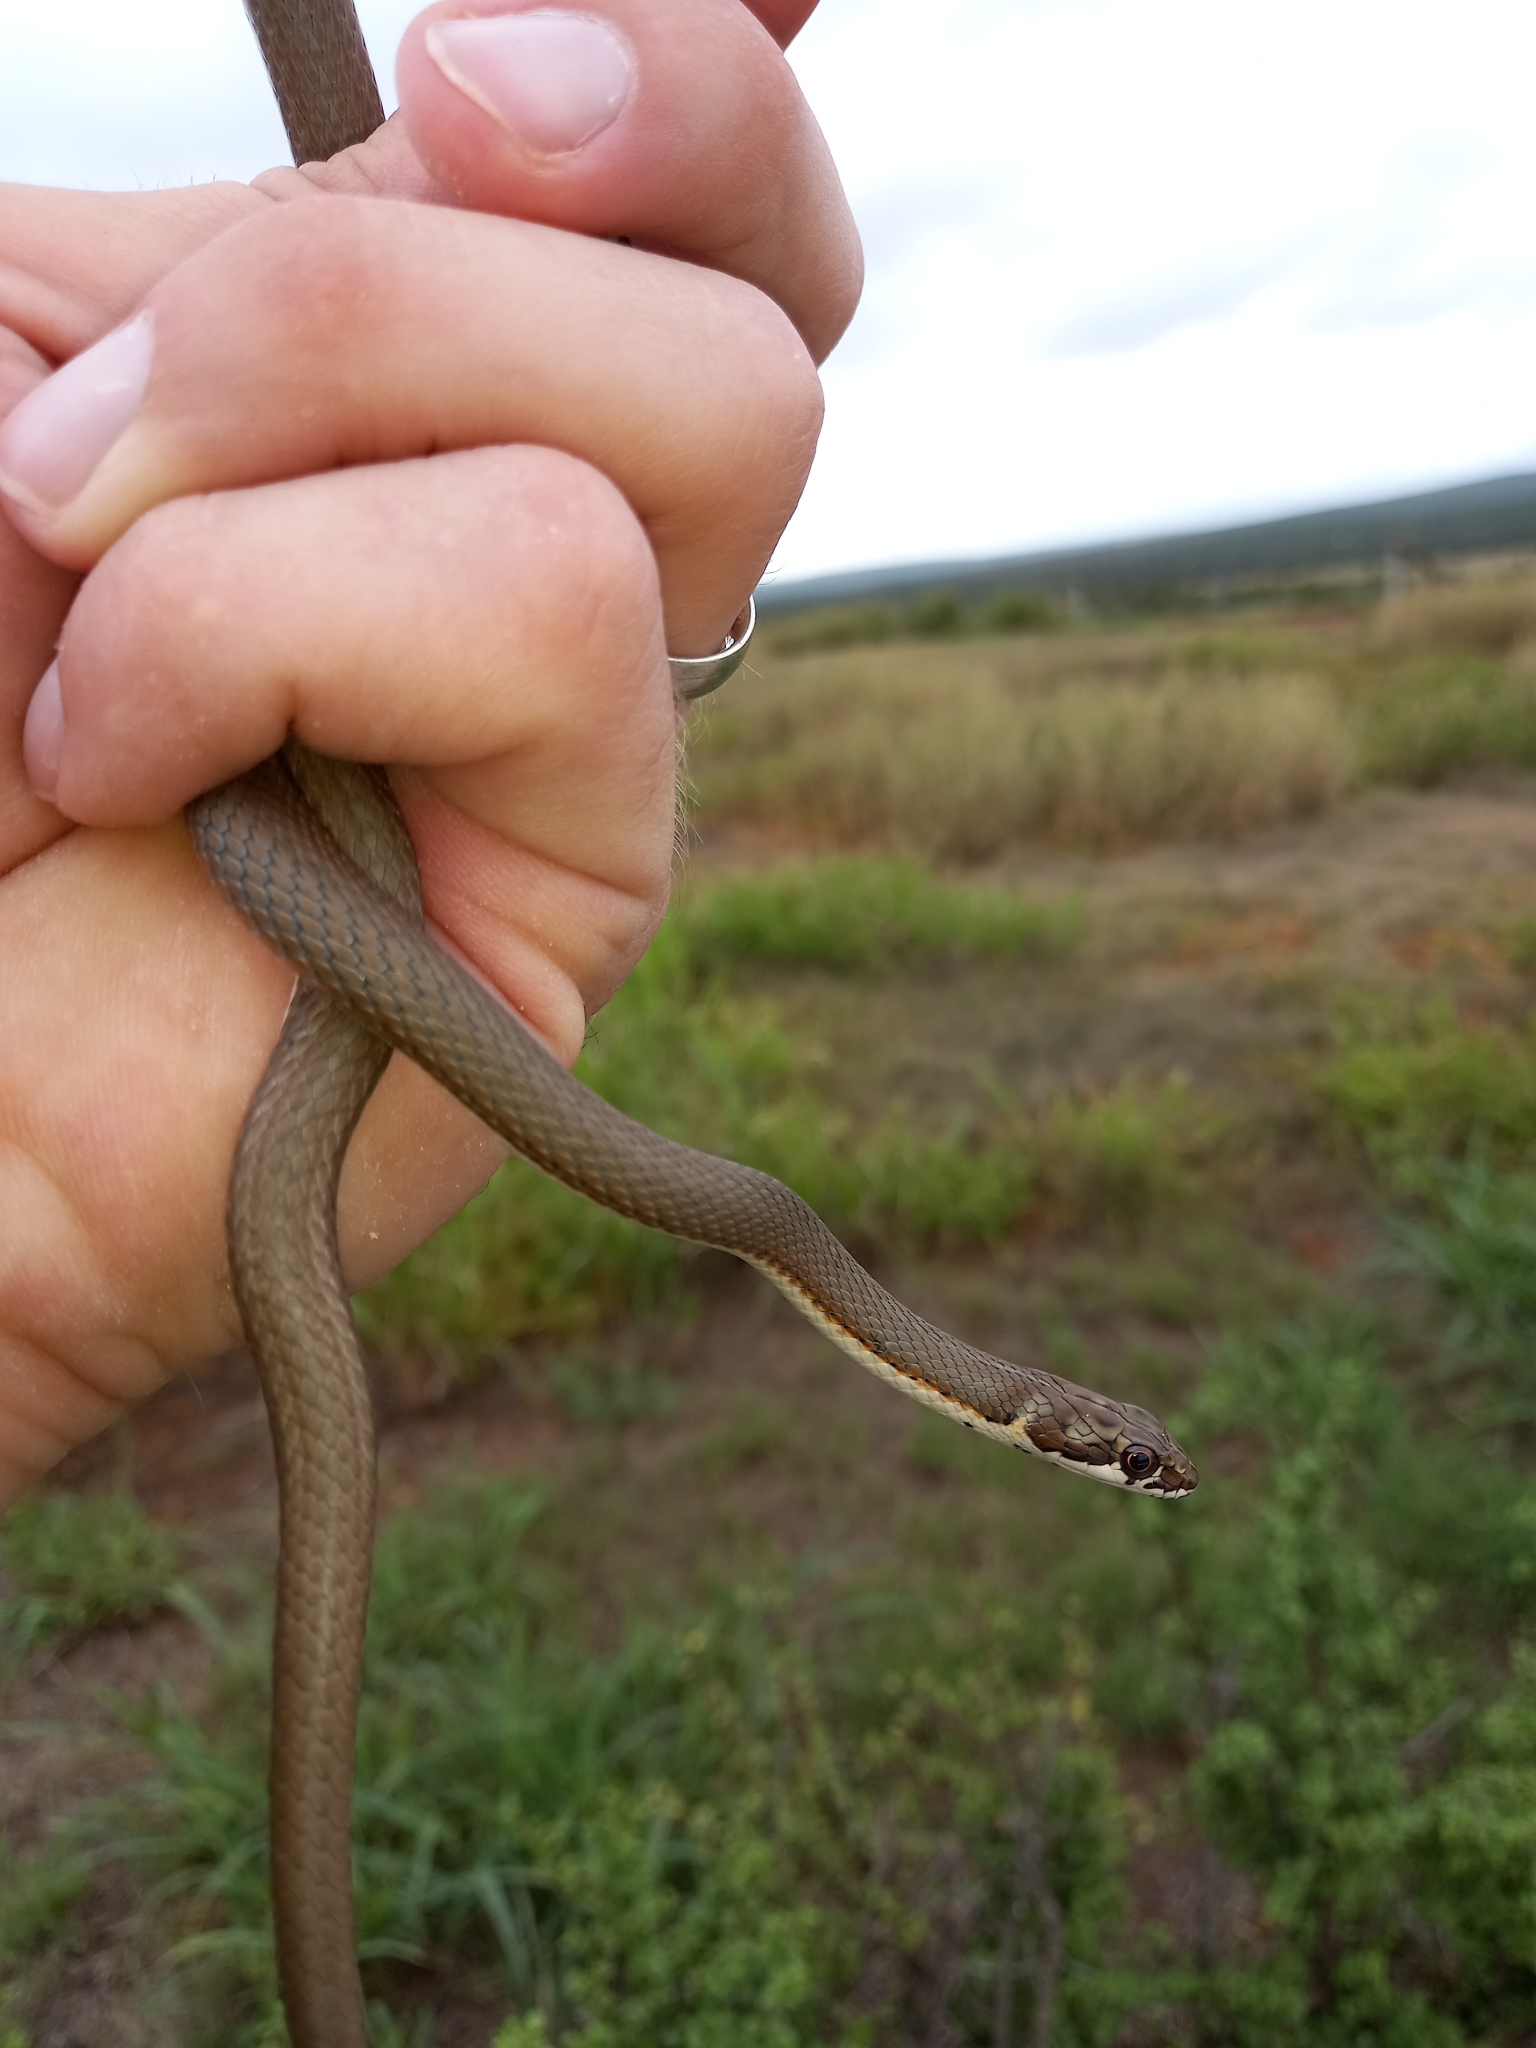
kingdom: Animalia
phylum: Chordata
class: Squamata
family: Psammophiidae
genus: Psammophis
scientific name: Psammophis notostictus
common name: Karoo sand snake
